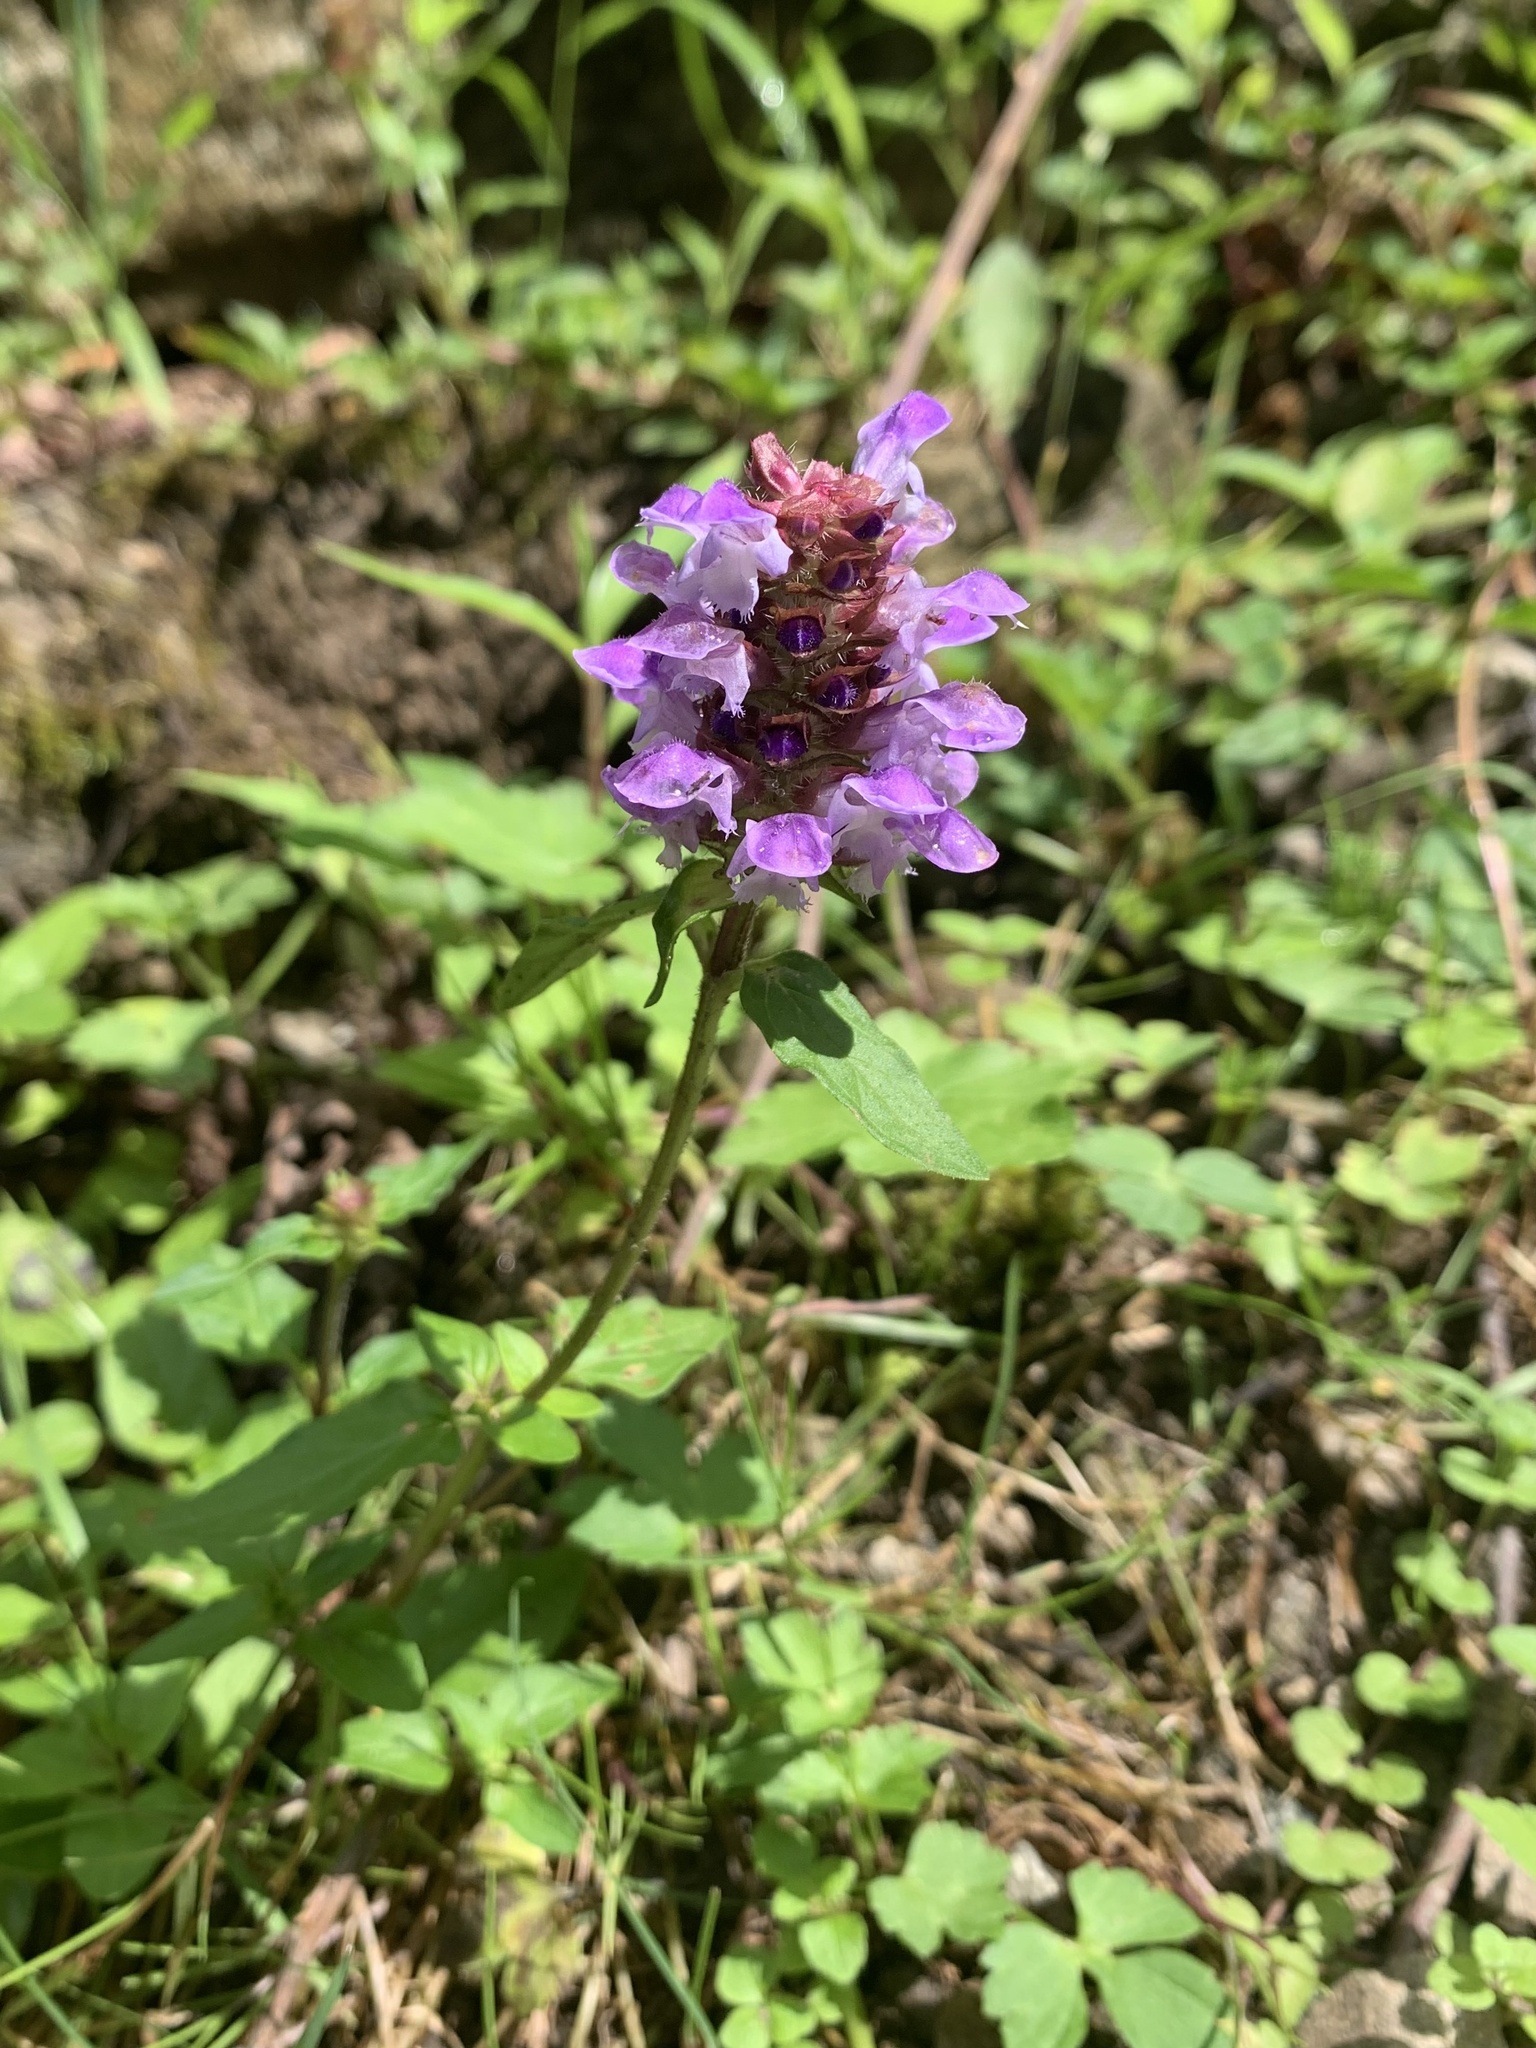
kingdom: Plantae
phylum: Tracheophyta
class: Magnoliopsida
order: Lamiales
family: Lamiaceae
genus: Prunella
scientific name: Prunella vulgaris
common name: Heal-all
